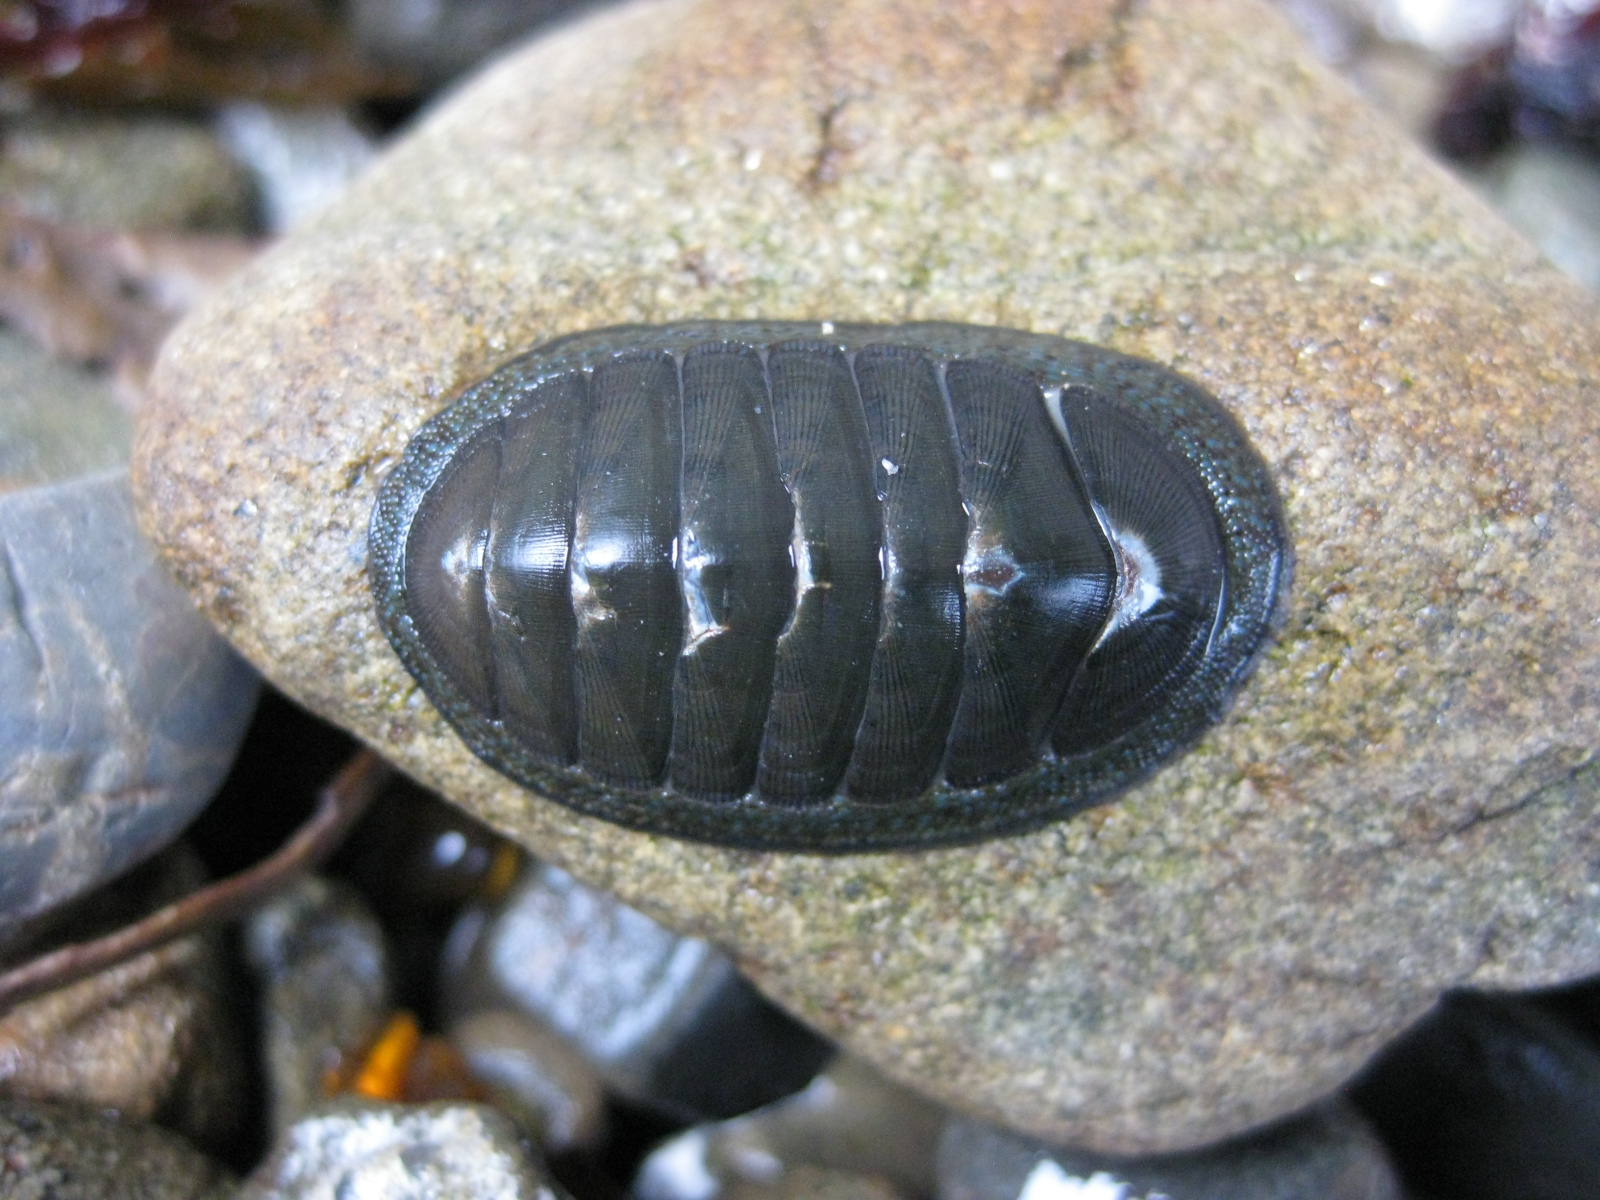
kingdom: Animalia
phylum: Mollusca
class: Polyplacophora
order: Chitonida
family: Chitonidae
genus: Chiton
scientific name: Chiton glaucus
